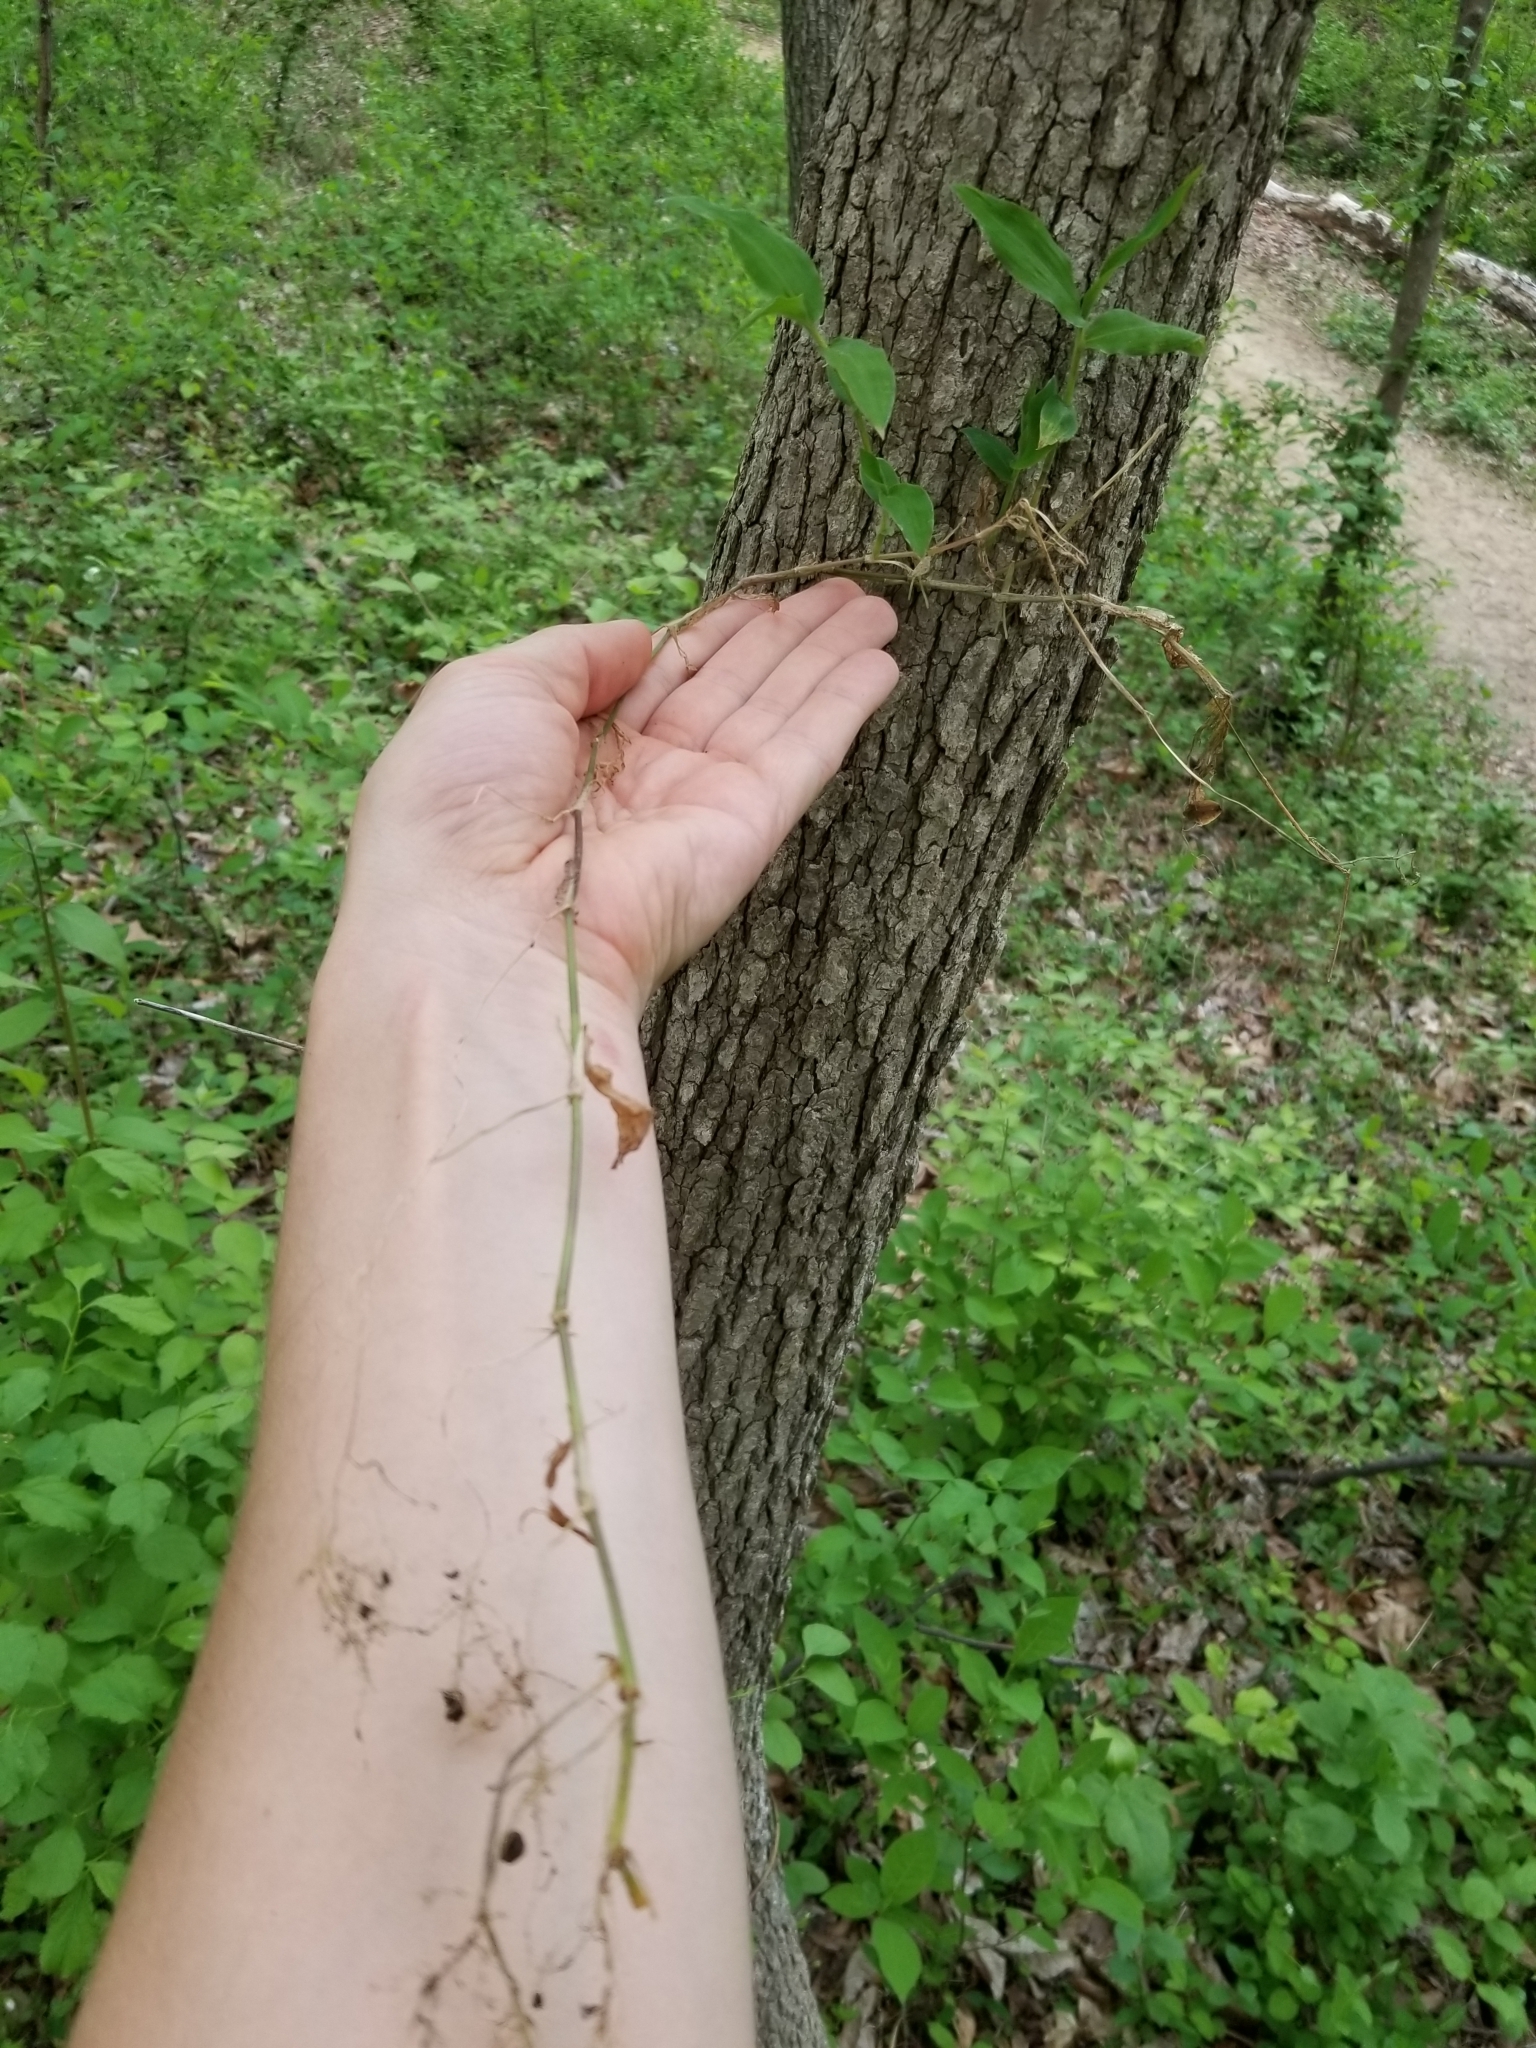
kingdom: Plantae
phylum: Tracheophyta
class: Liliopsida
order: Poales
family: Poaceae
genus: Oplismenus
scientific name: Oplismenus undulatifolius
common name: Wavyleaf basketgrass
